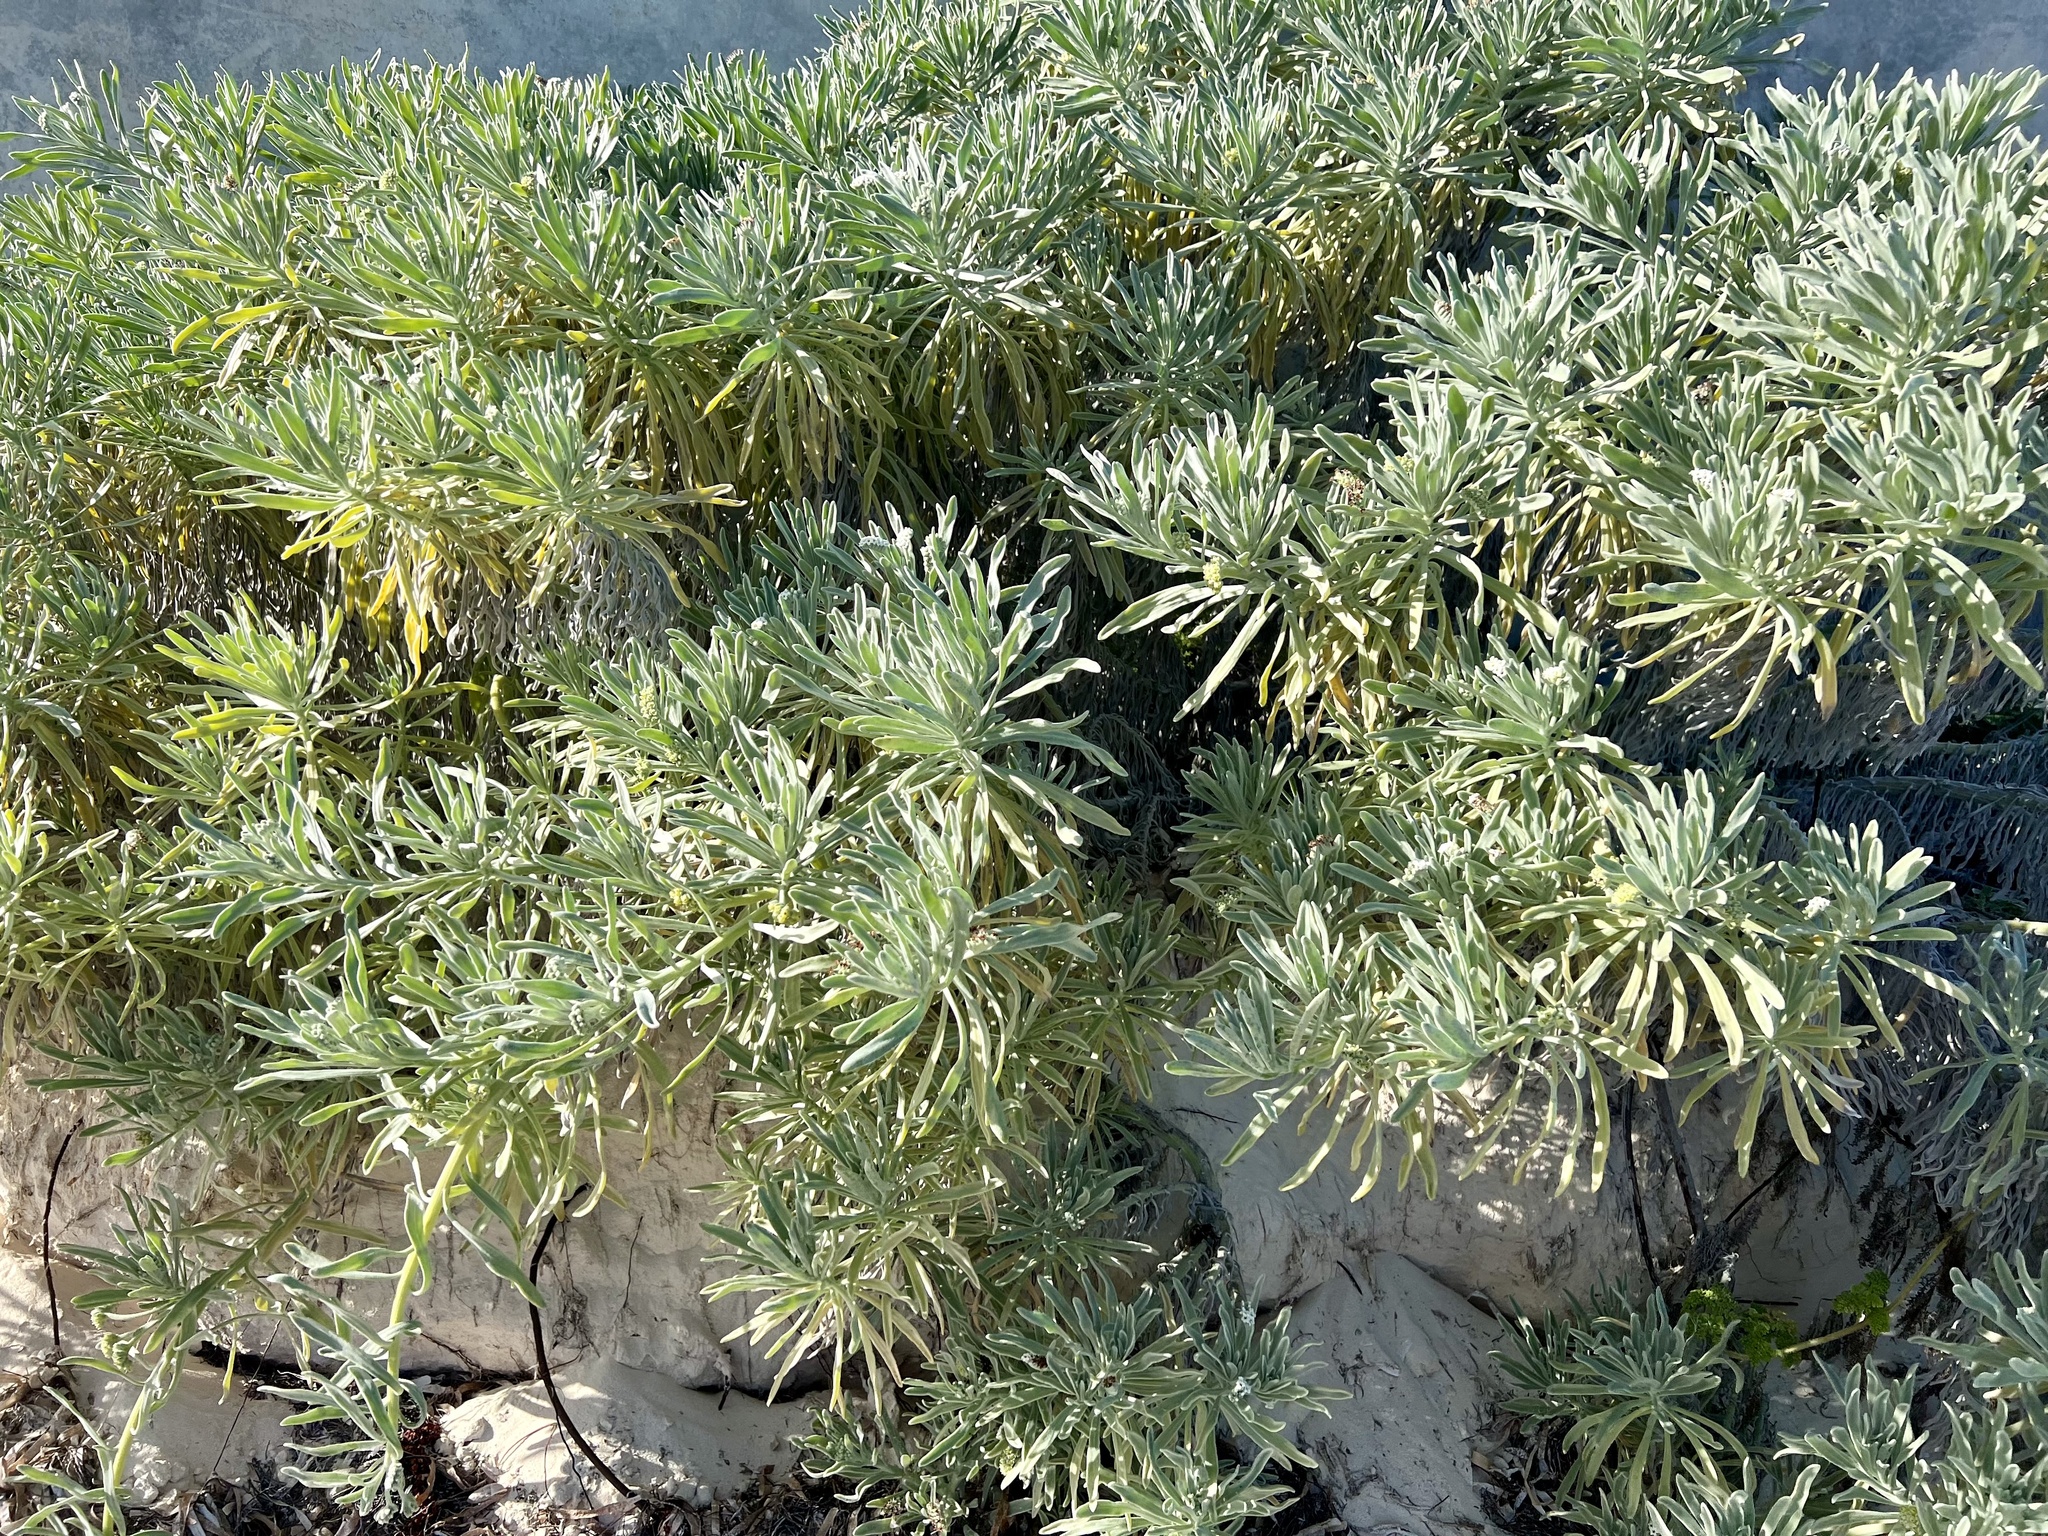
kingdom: Plantae
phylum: Tracheophyta
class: Magnoliopsida
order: Boraginales
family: Heliotropiaceae
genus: Tournefortia
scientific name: Tournefortia gnaphalodes
